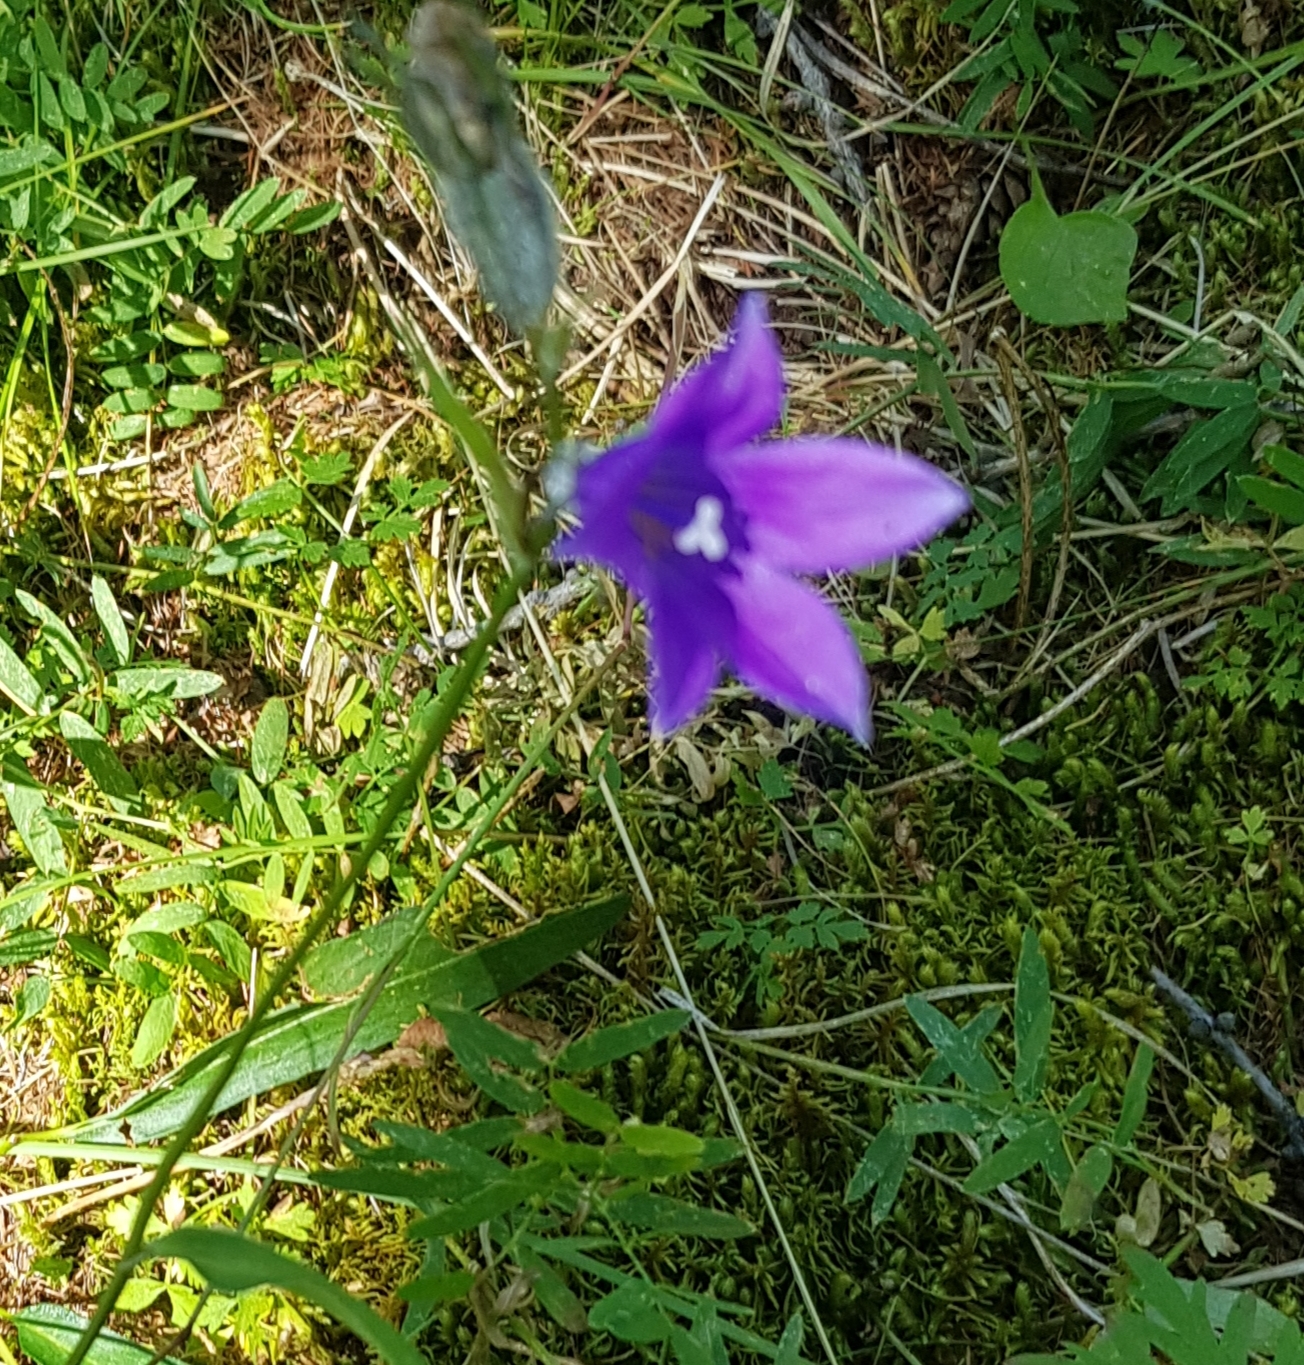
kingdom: Plantae
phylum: Tracheophyta
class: Magnoliopsida
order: Asterales
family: Campanulaceae
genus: Campanula
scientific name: Campanula stevenii
